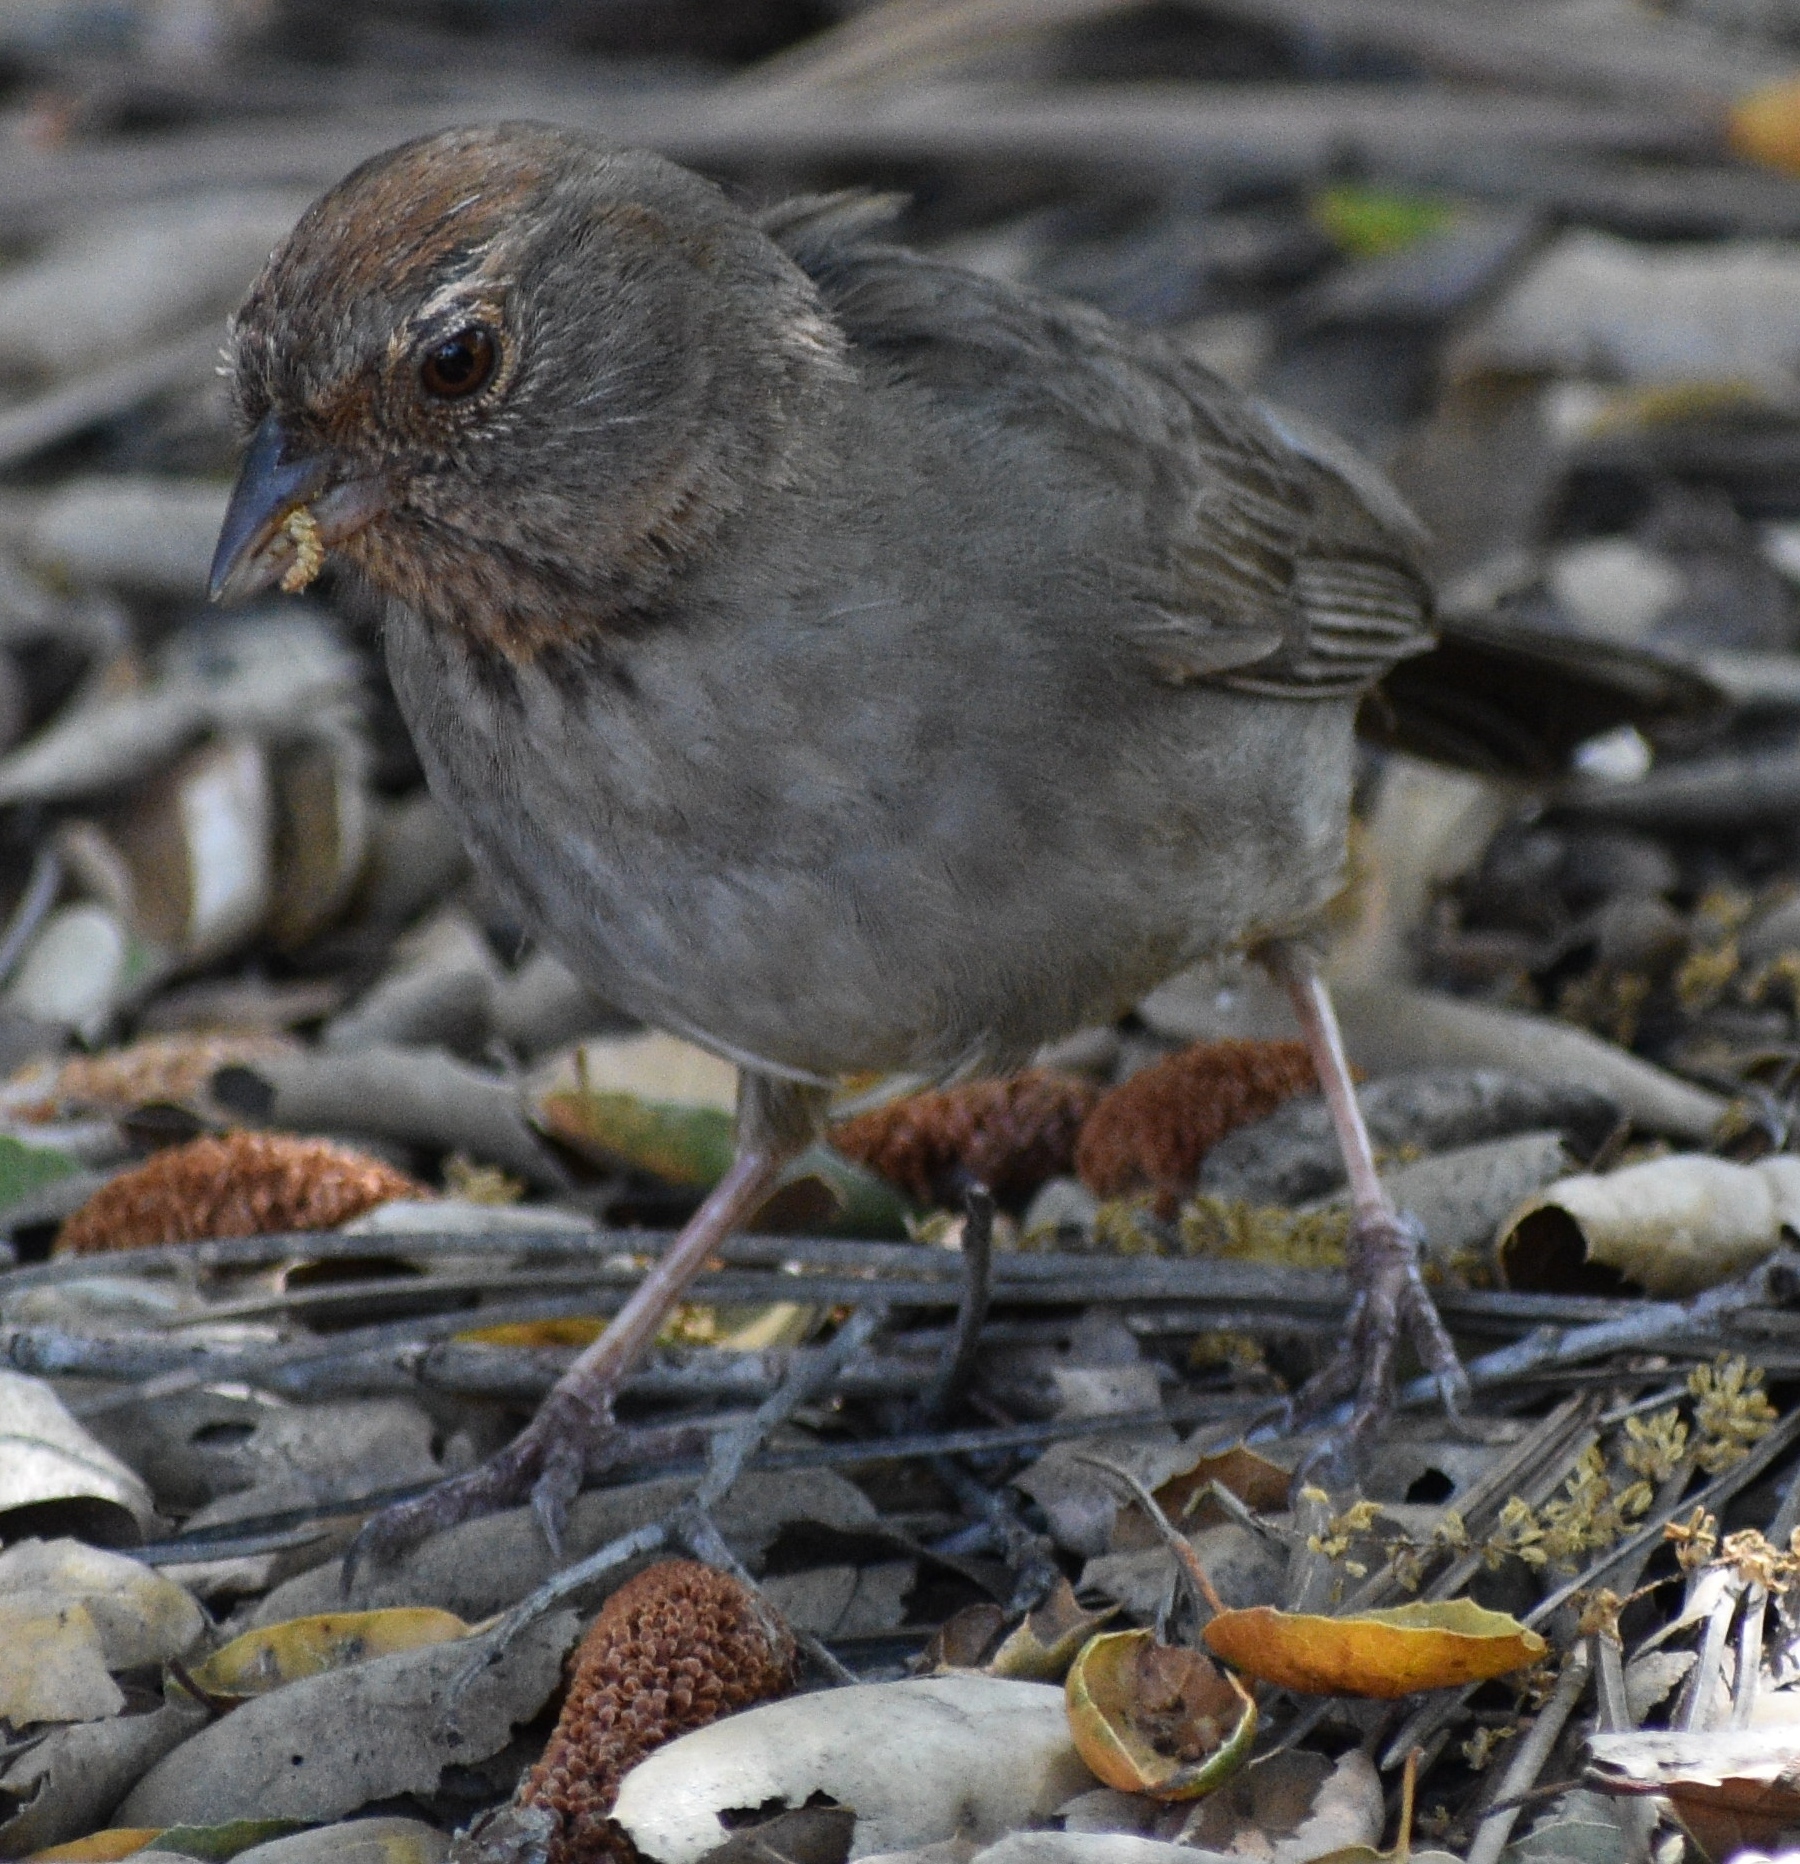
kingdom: Animalia
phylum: Chordata
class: Aves
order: Passeriformes
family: Passerellidae
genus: Melozone
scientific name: Melozone crissalis
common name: California towhee
